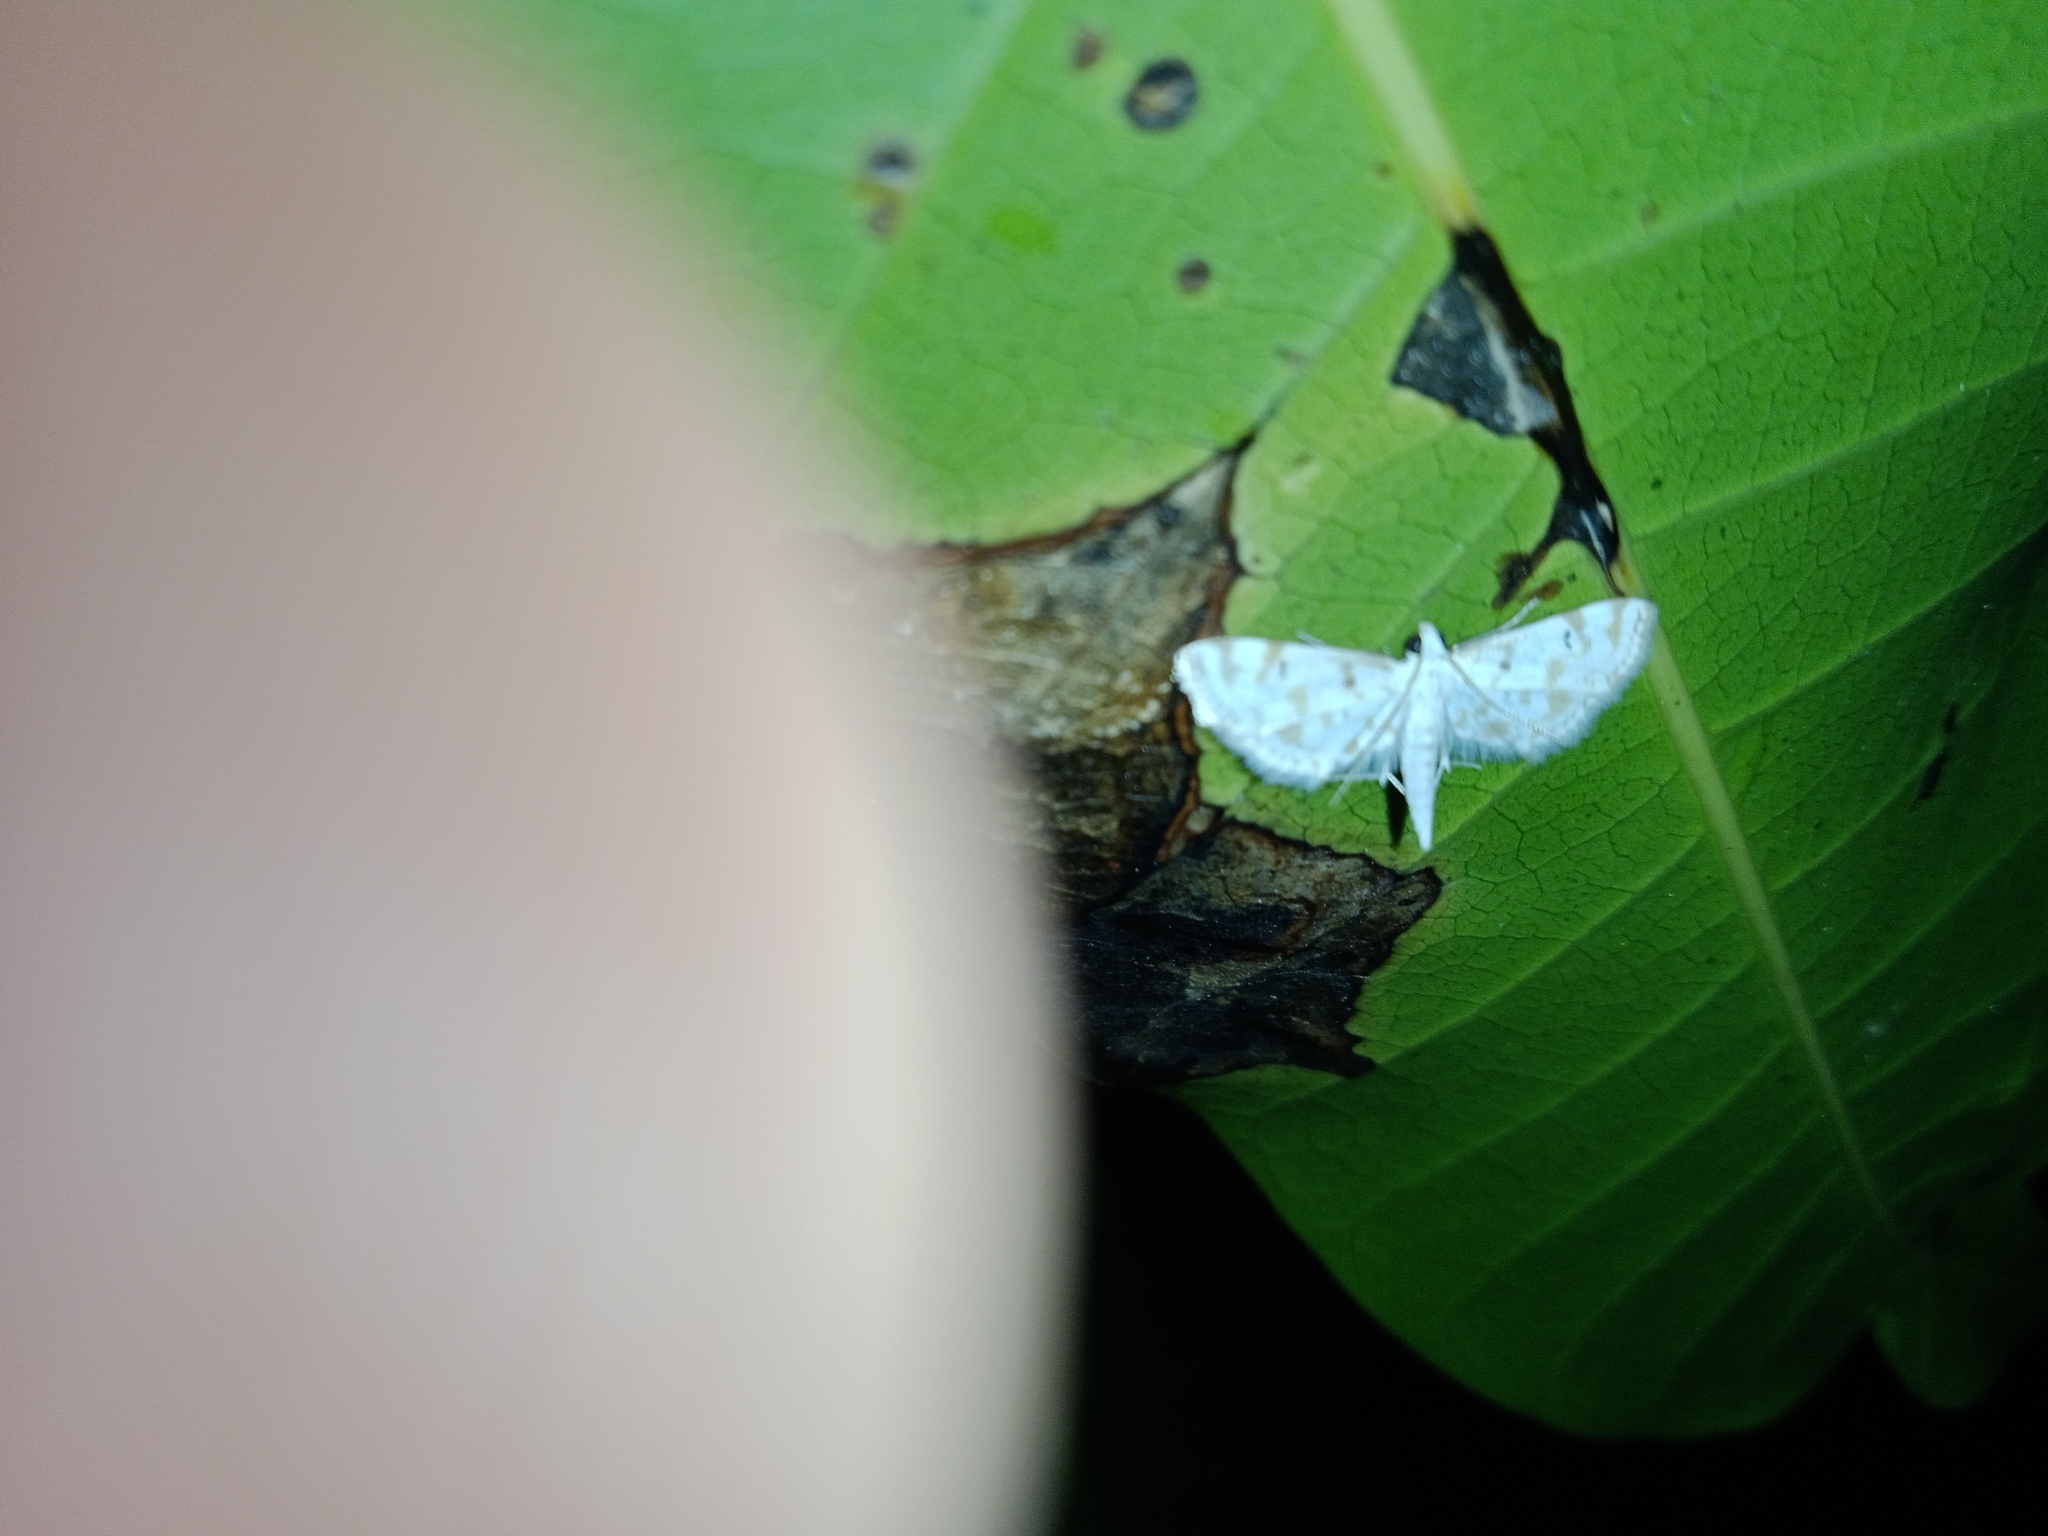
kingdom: Animalia
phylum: Arthropoda
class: Insecta
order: Lepidoptera
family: Crambidae
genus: Parapoynx
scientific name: Parapoynx stagnalis
